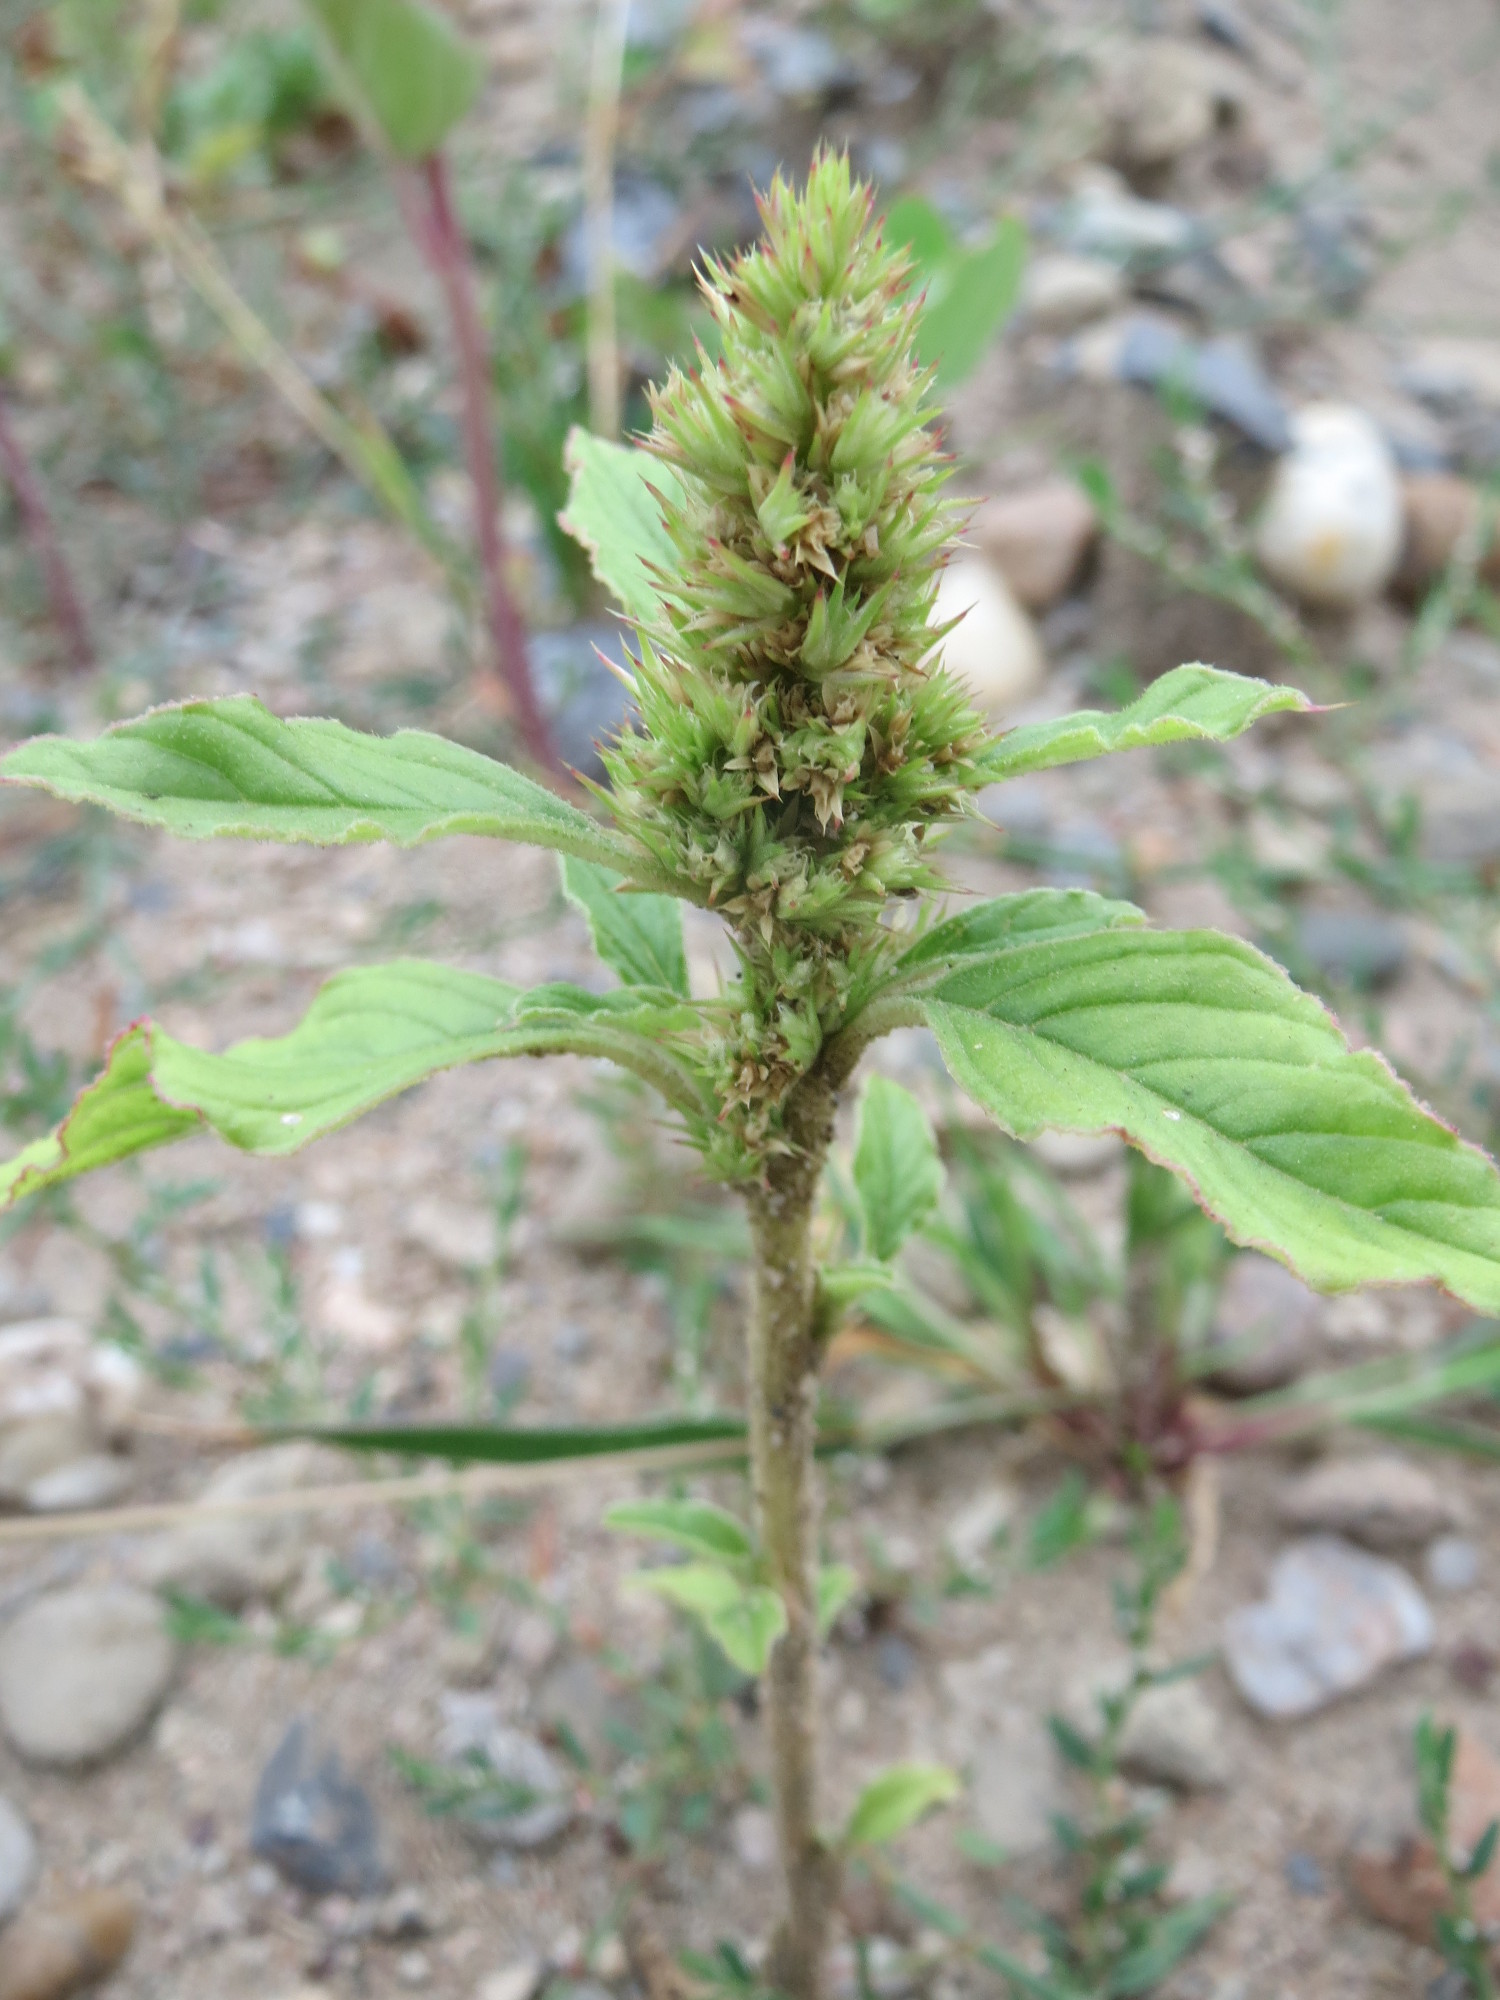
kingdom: Plantae
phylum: Tracheophyta
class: Magnoliopsida
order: Caryophyllales
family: Amaranthaceae
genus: Amaranthus
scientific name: Amaranthus retroflexus
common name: Redroot amaranth
